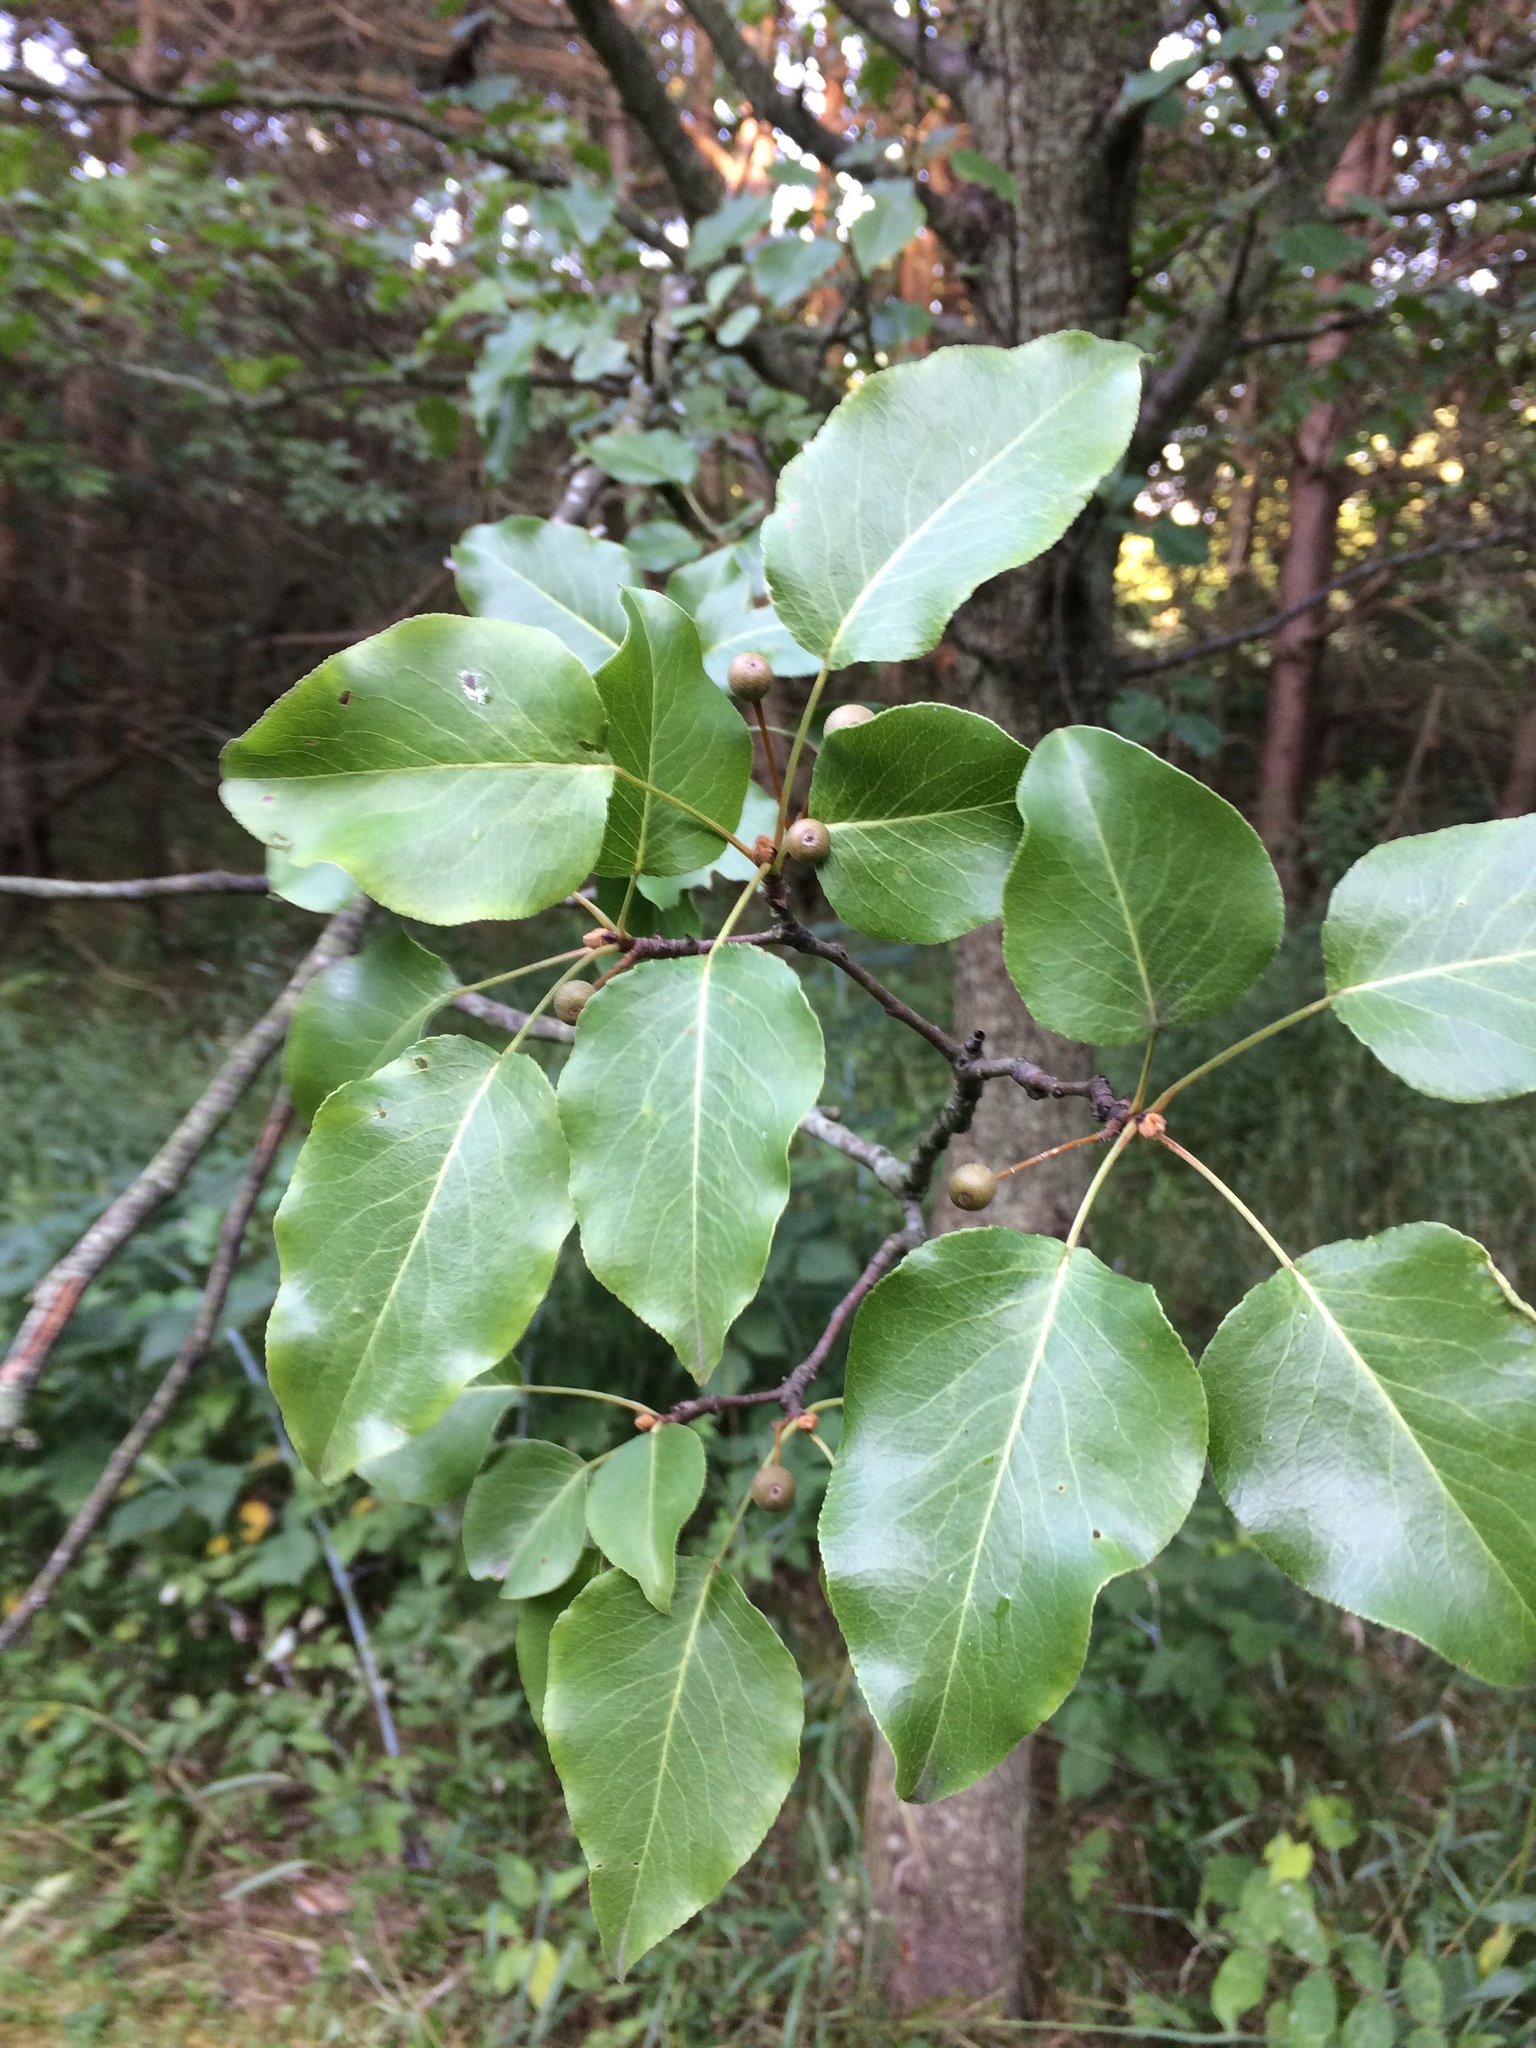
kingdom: Plantae
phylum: Tracheophyta
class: Magnoliopsida
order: Rosales
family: Rosaceae
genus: Pyrus
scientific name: Pyrus calleryana
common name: Callery pear
